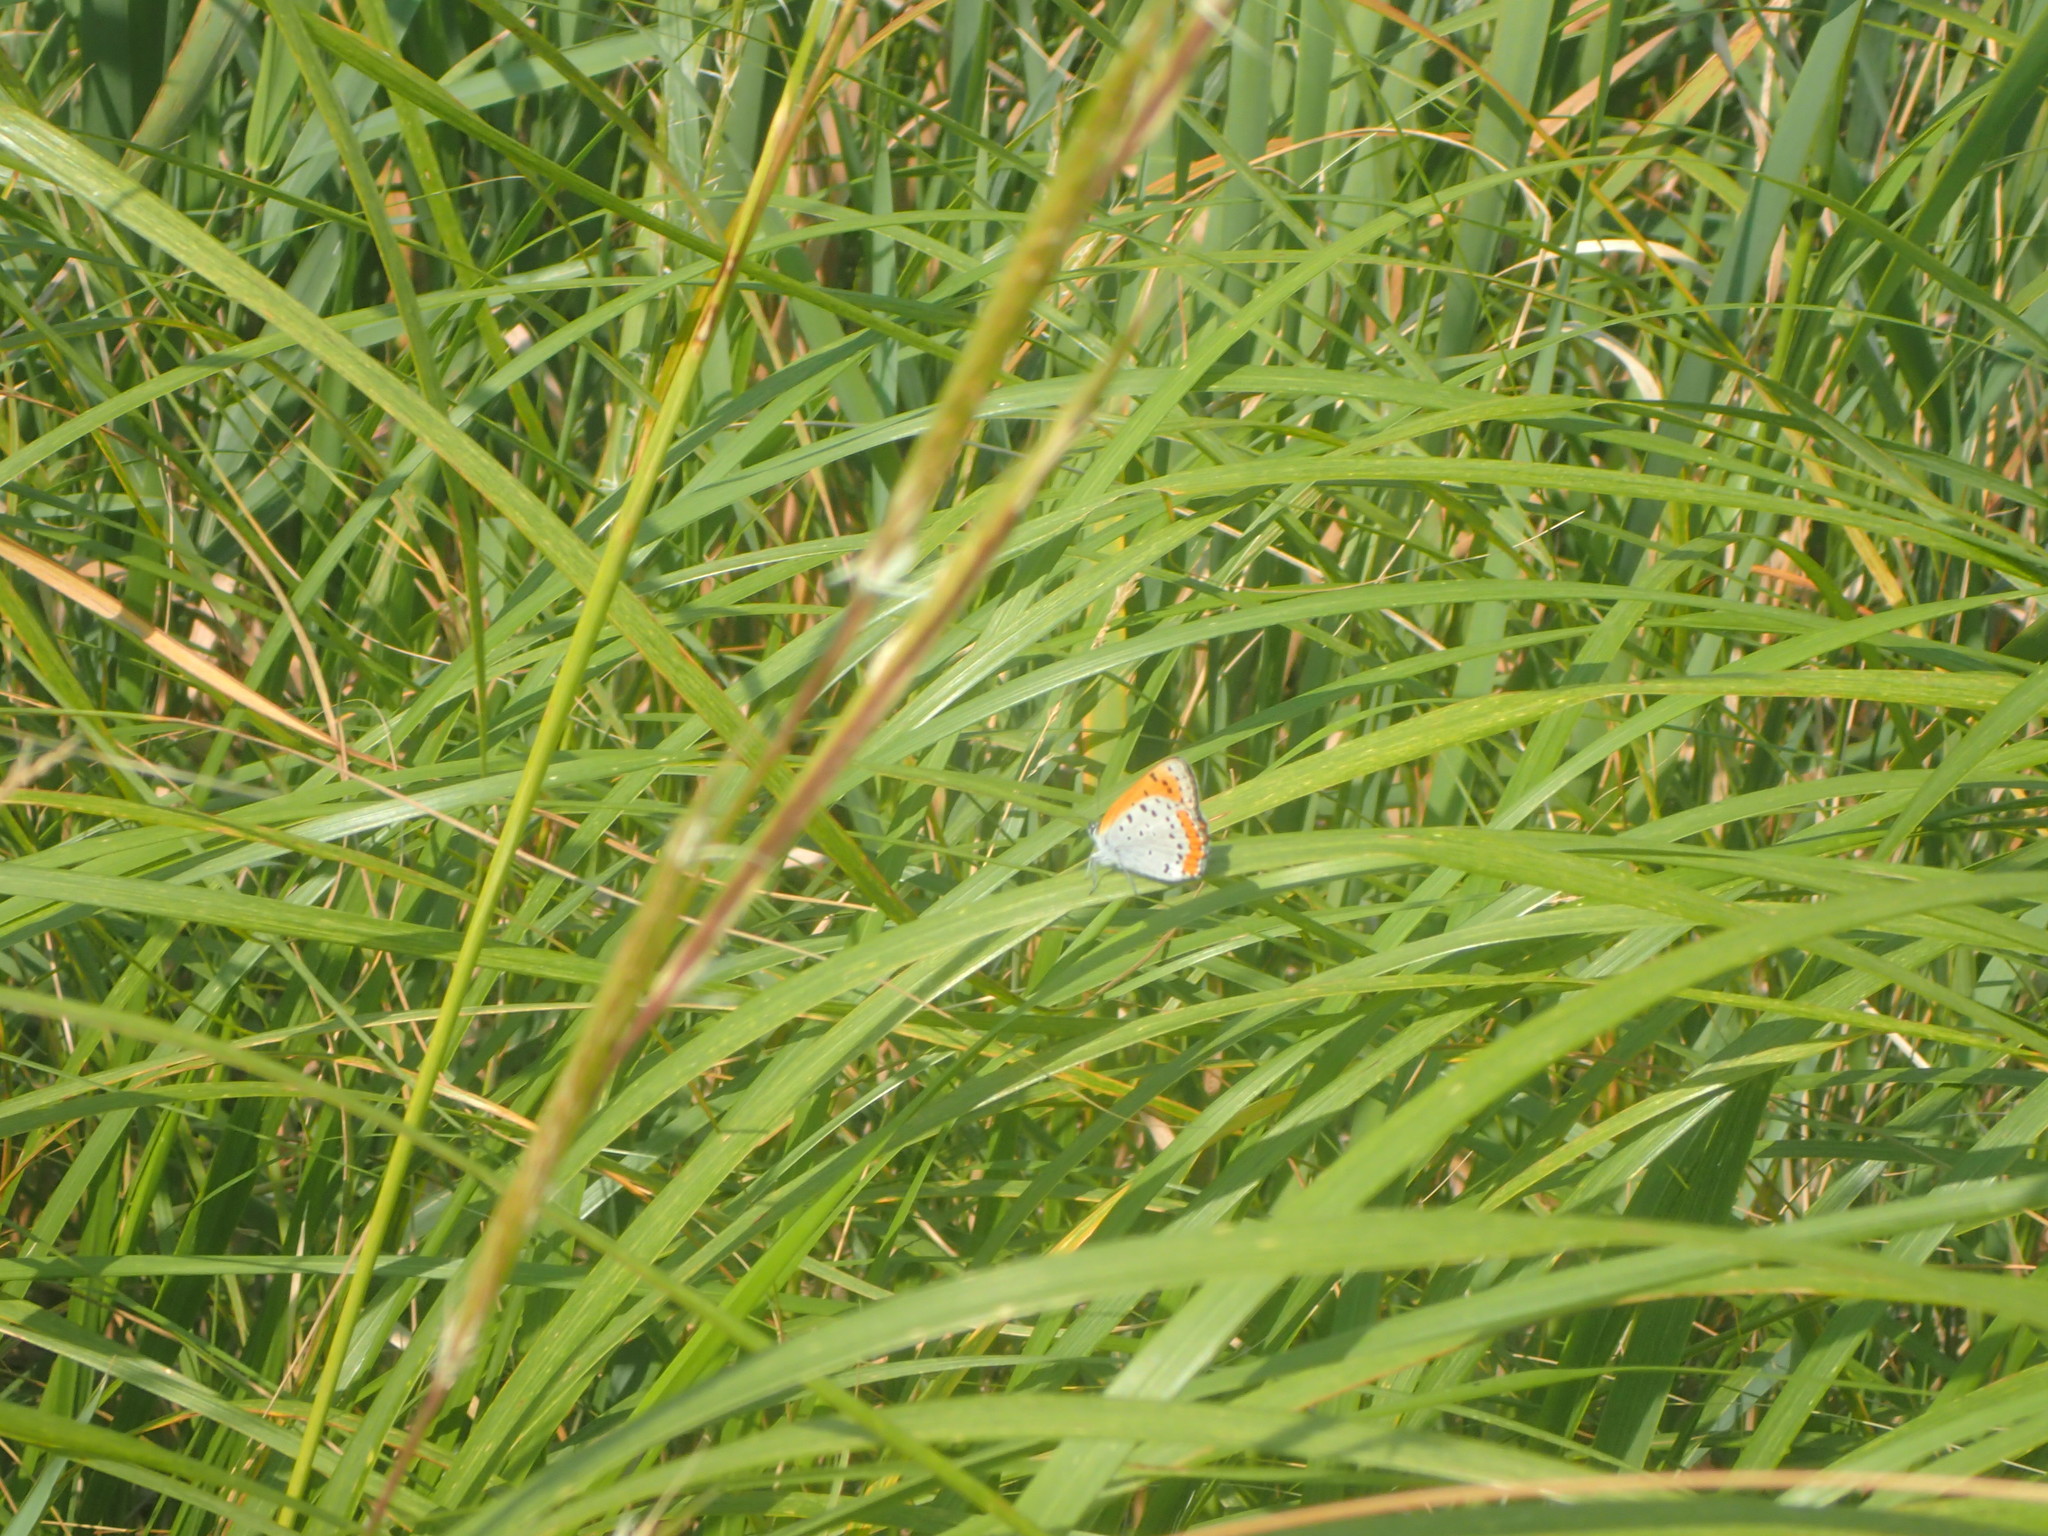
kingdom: Animalia
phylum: Arthropoda
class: Insecta
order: Lepidoptera
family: Lycaenidae
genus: Tharsalea
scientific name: Tharsalea hyllus
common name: Bronze copper
